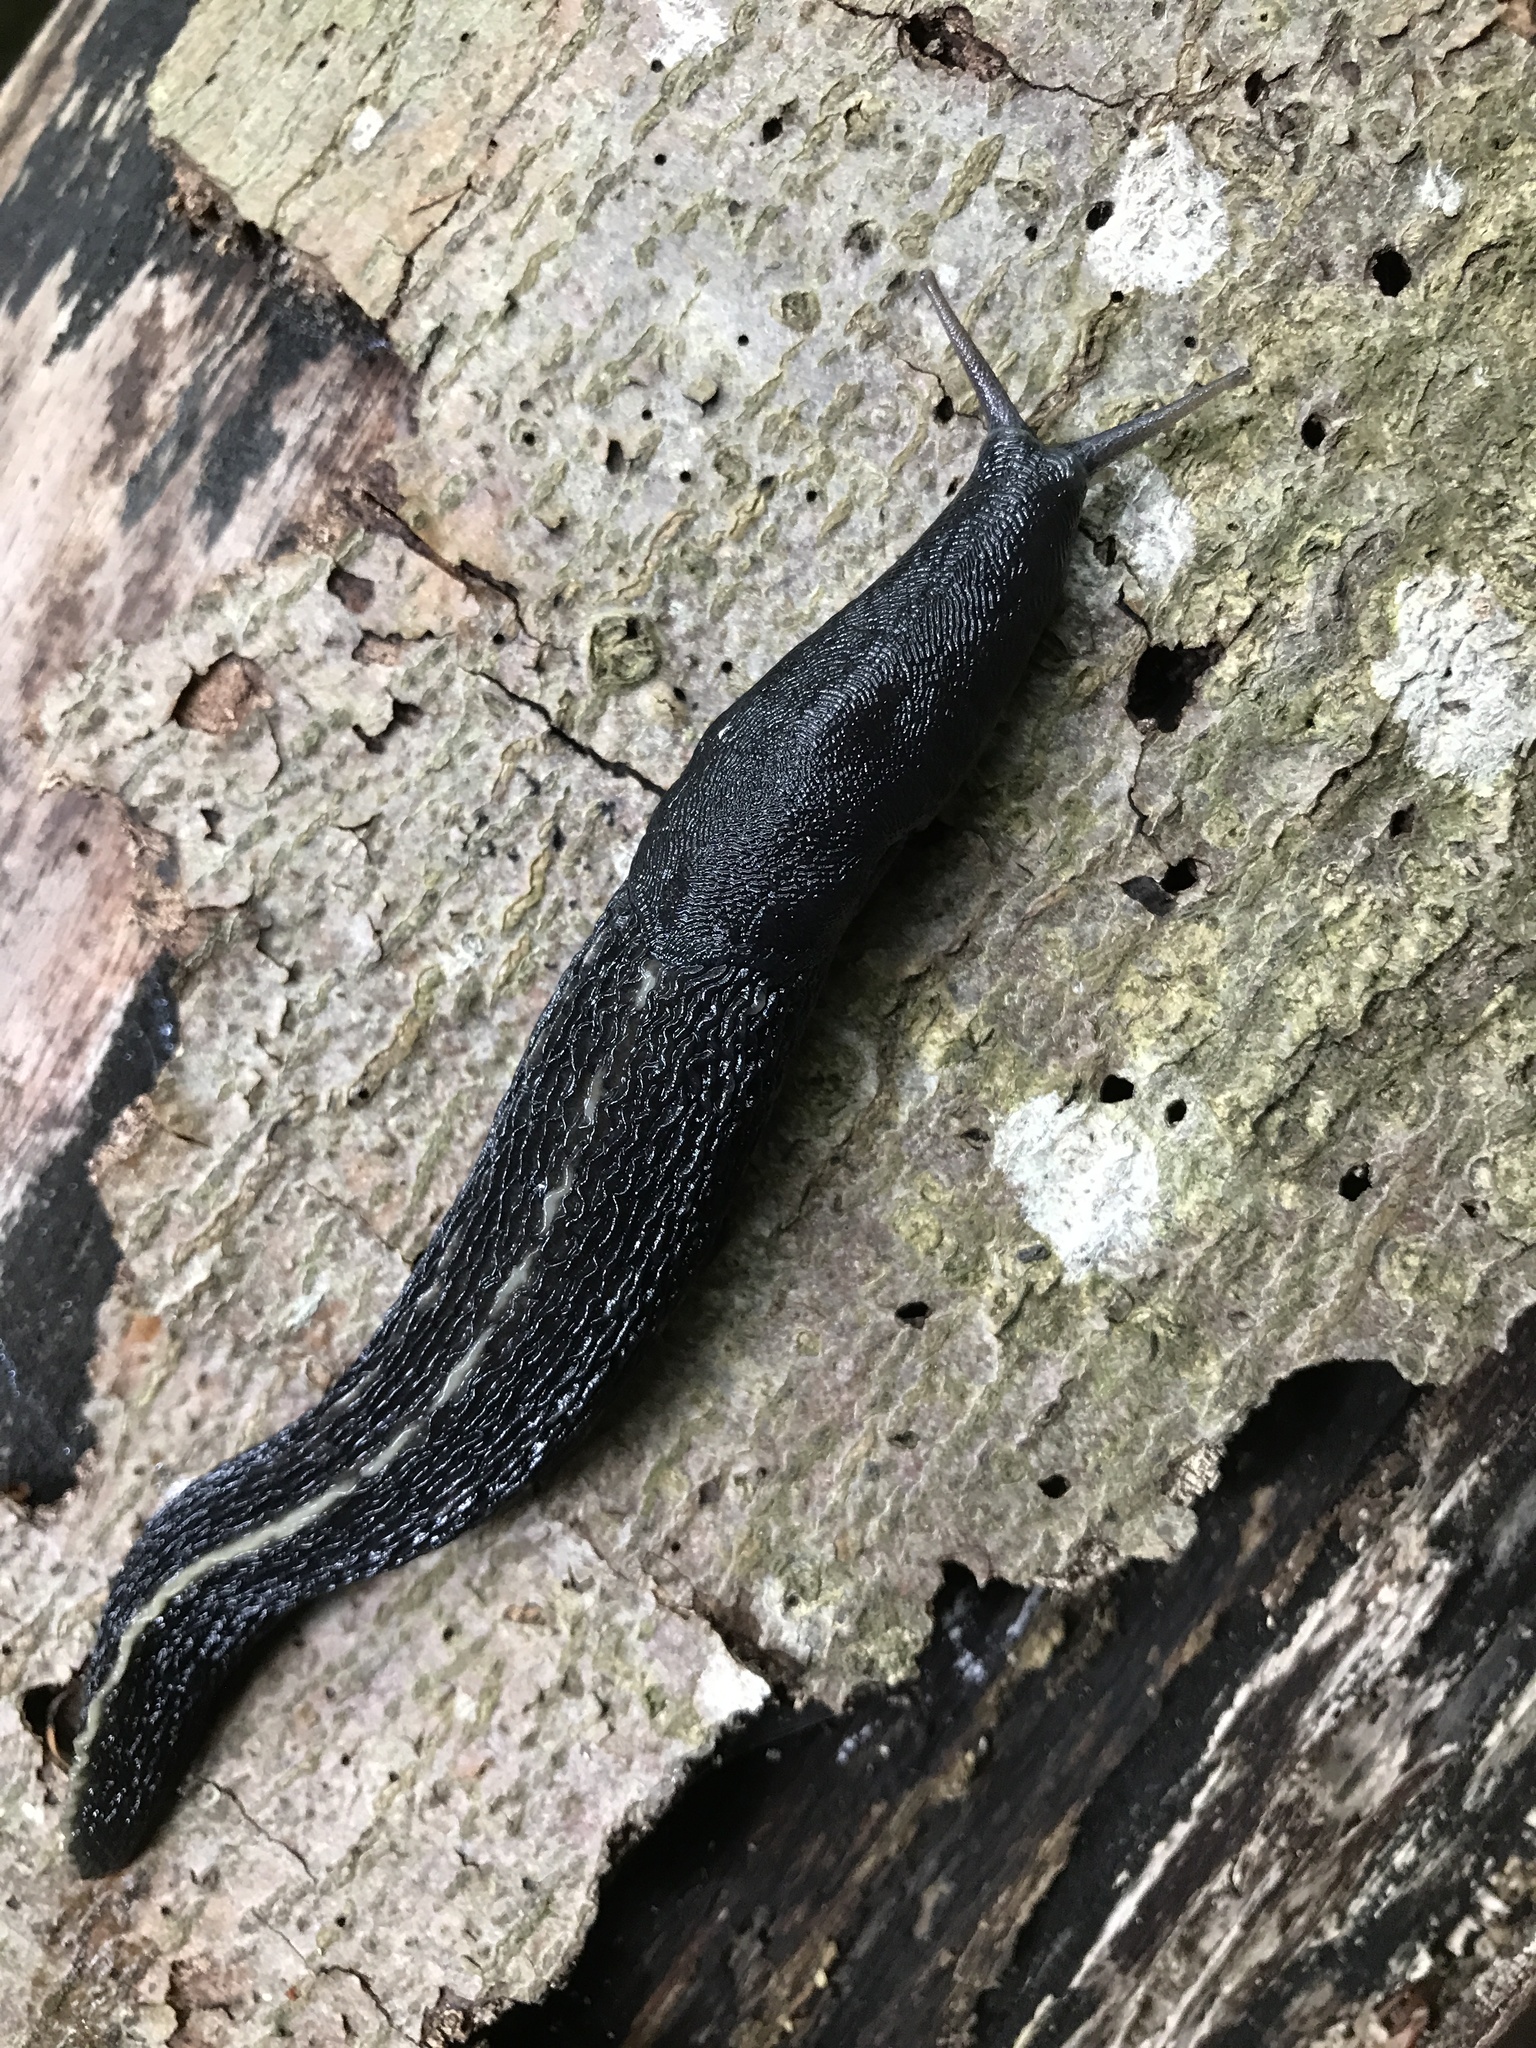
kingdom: Animalia
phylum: Mollusca
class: Gastropoda
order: Stylommatophora
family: Limacidae
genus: Limax
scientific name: Limax cinereoniger
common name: Ash-black slug
